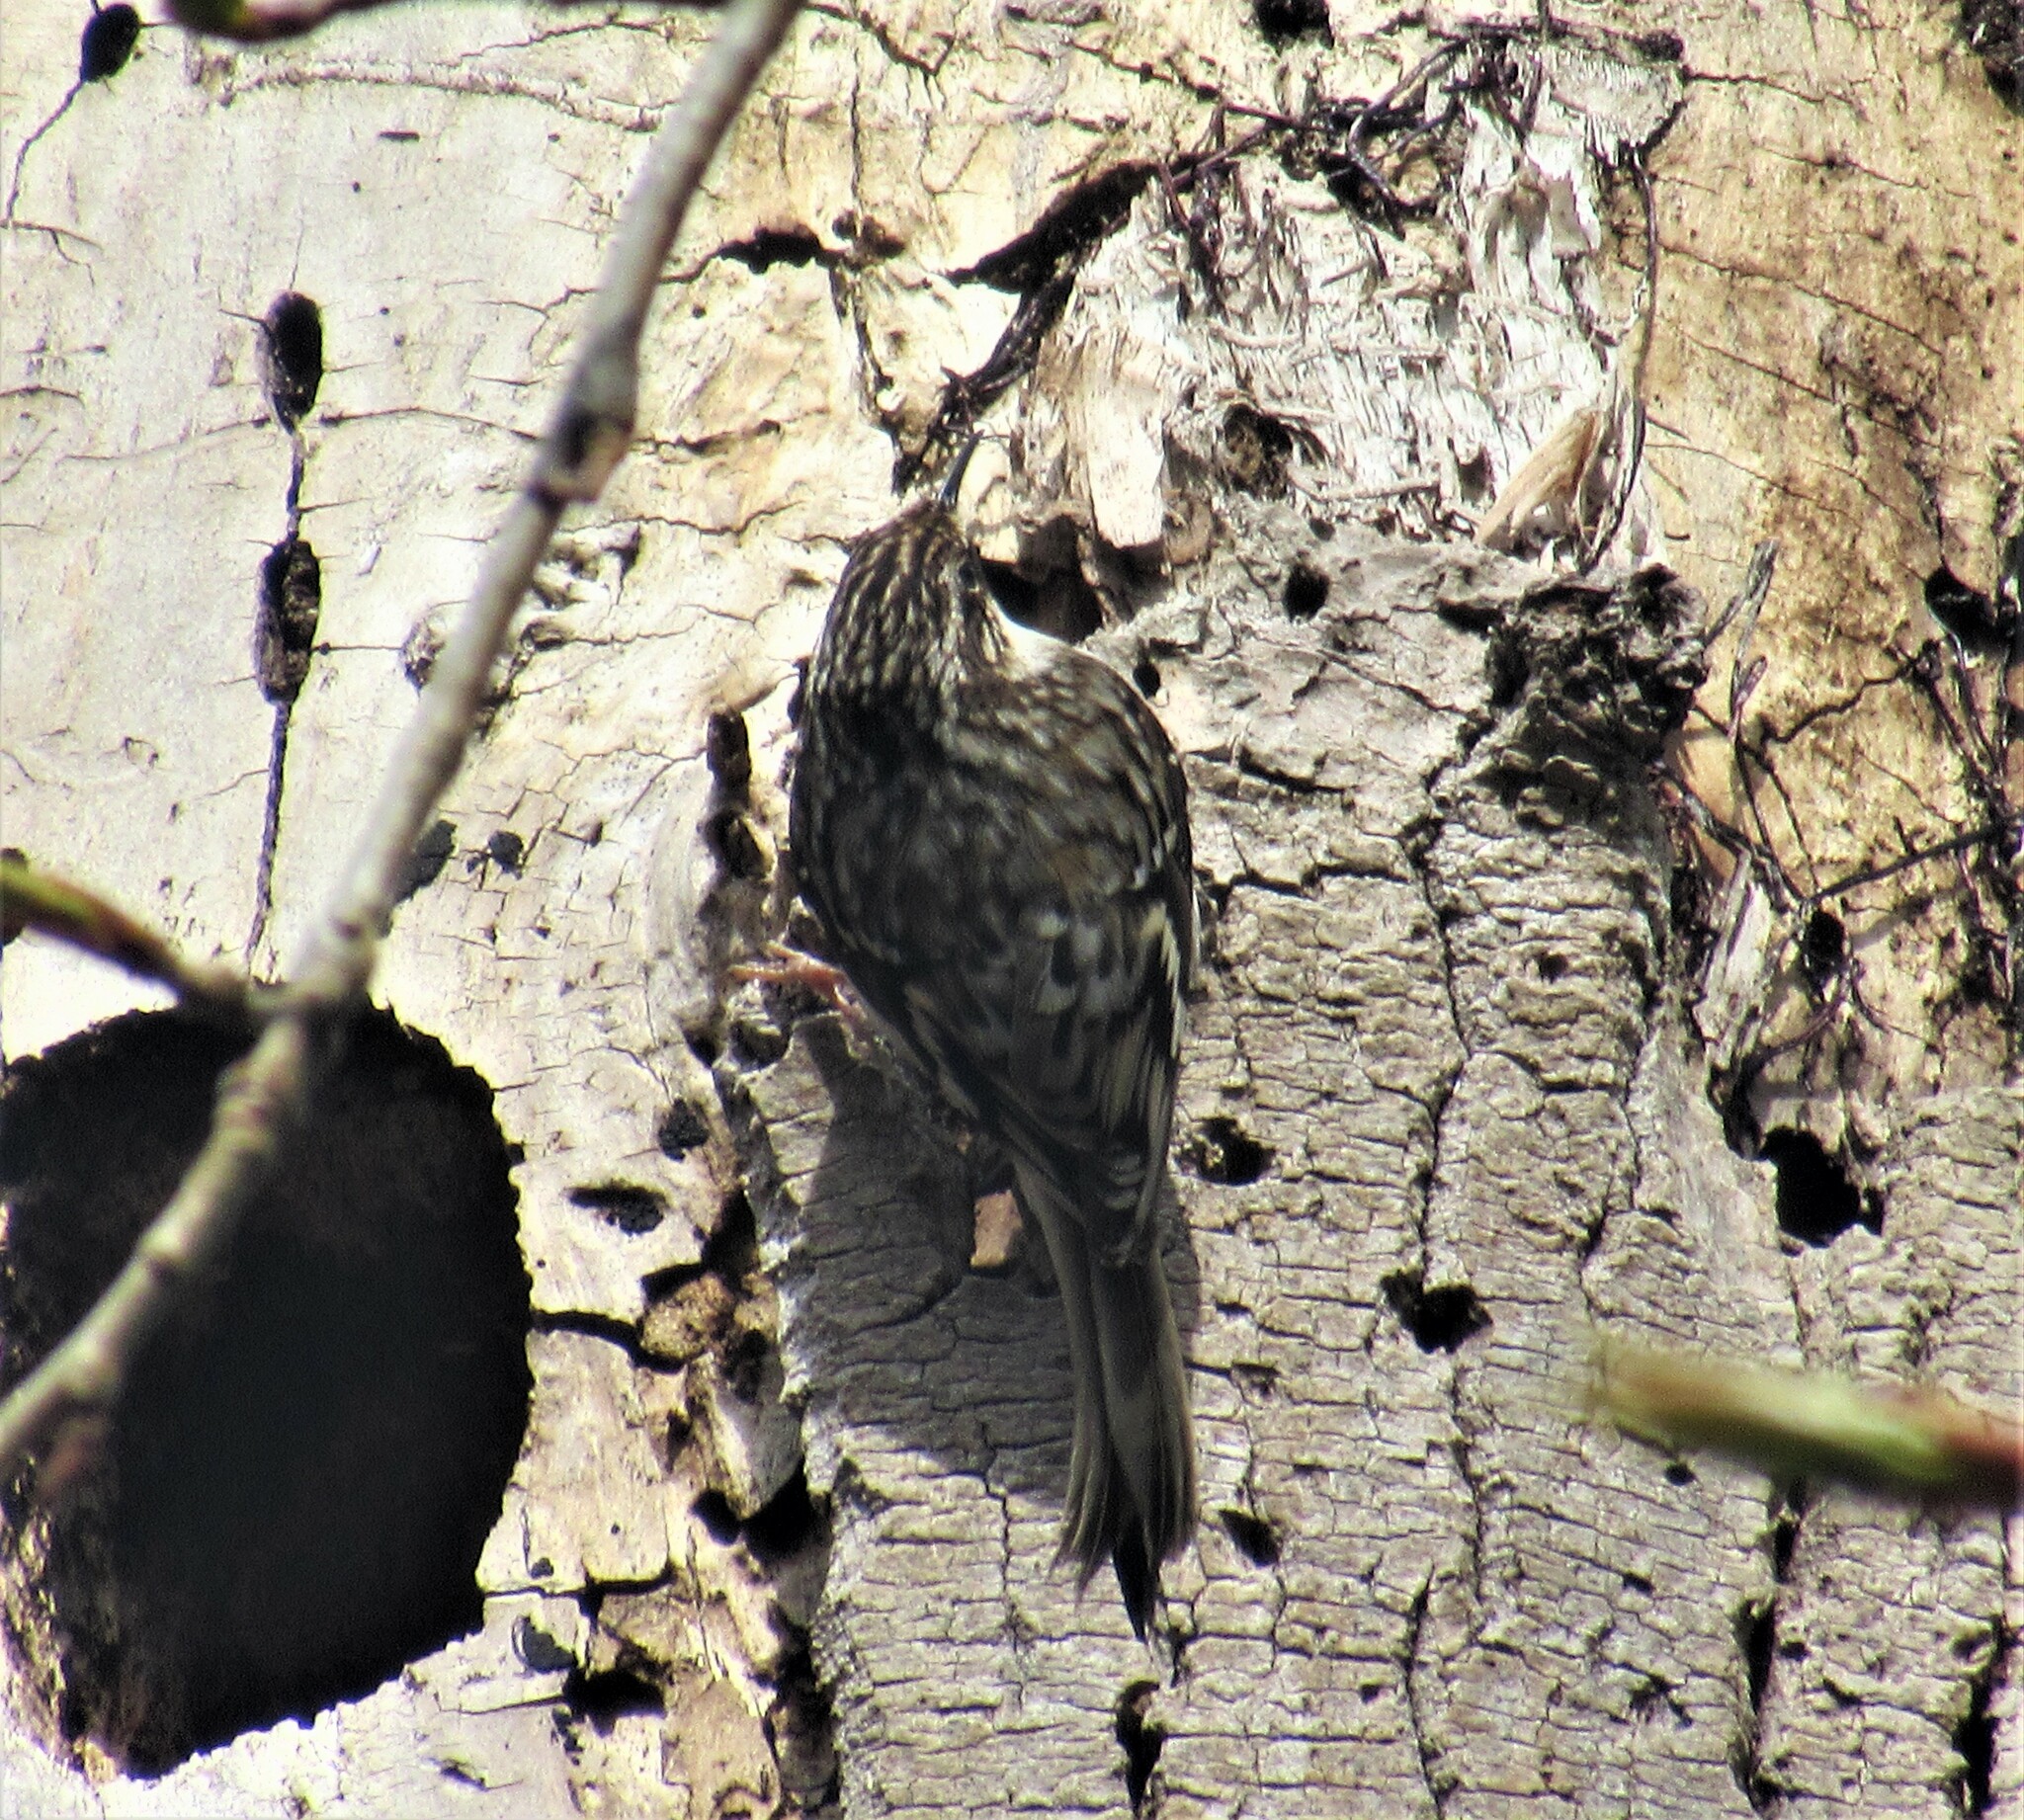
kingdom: Animalia
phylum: Chordata
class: Aves
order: Passeriformes
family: Certhiidae
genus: Certhia
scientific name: Certhia americana
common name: Brown creeper
